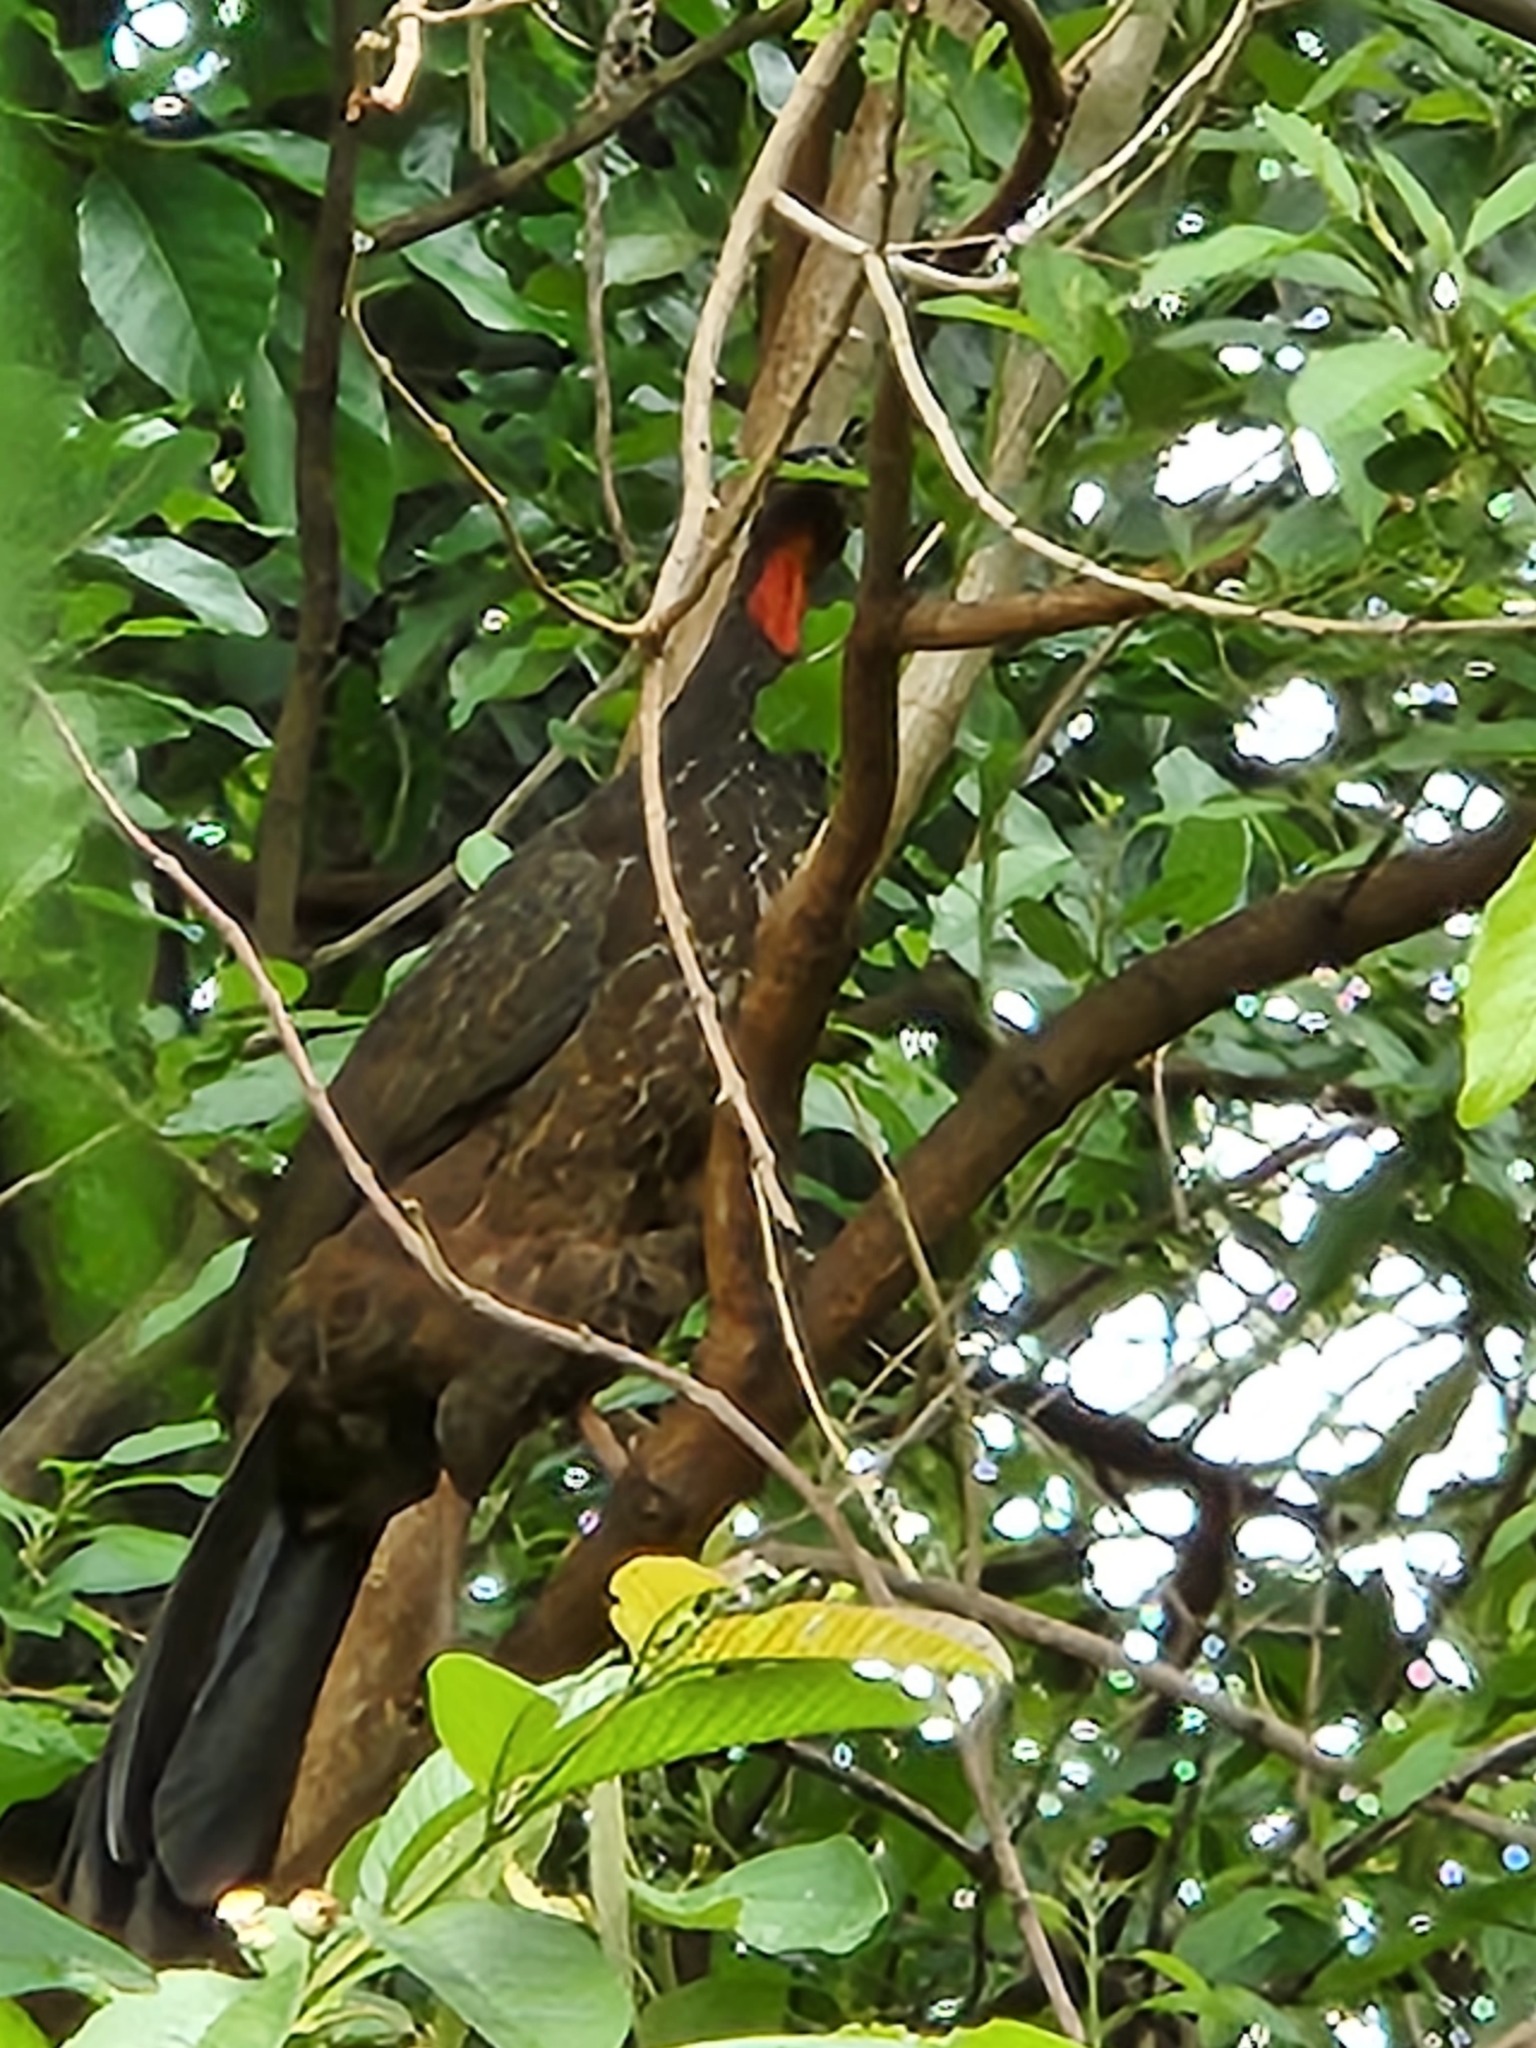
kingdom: Animalia
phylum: Chordata
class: Aves
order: Galliformes
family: Cracidae
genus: Penelope
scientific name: Penelope obscura
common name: Dusky-legged guan
